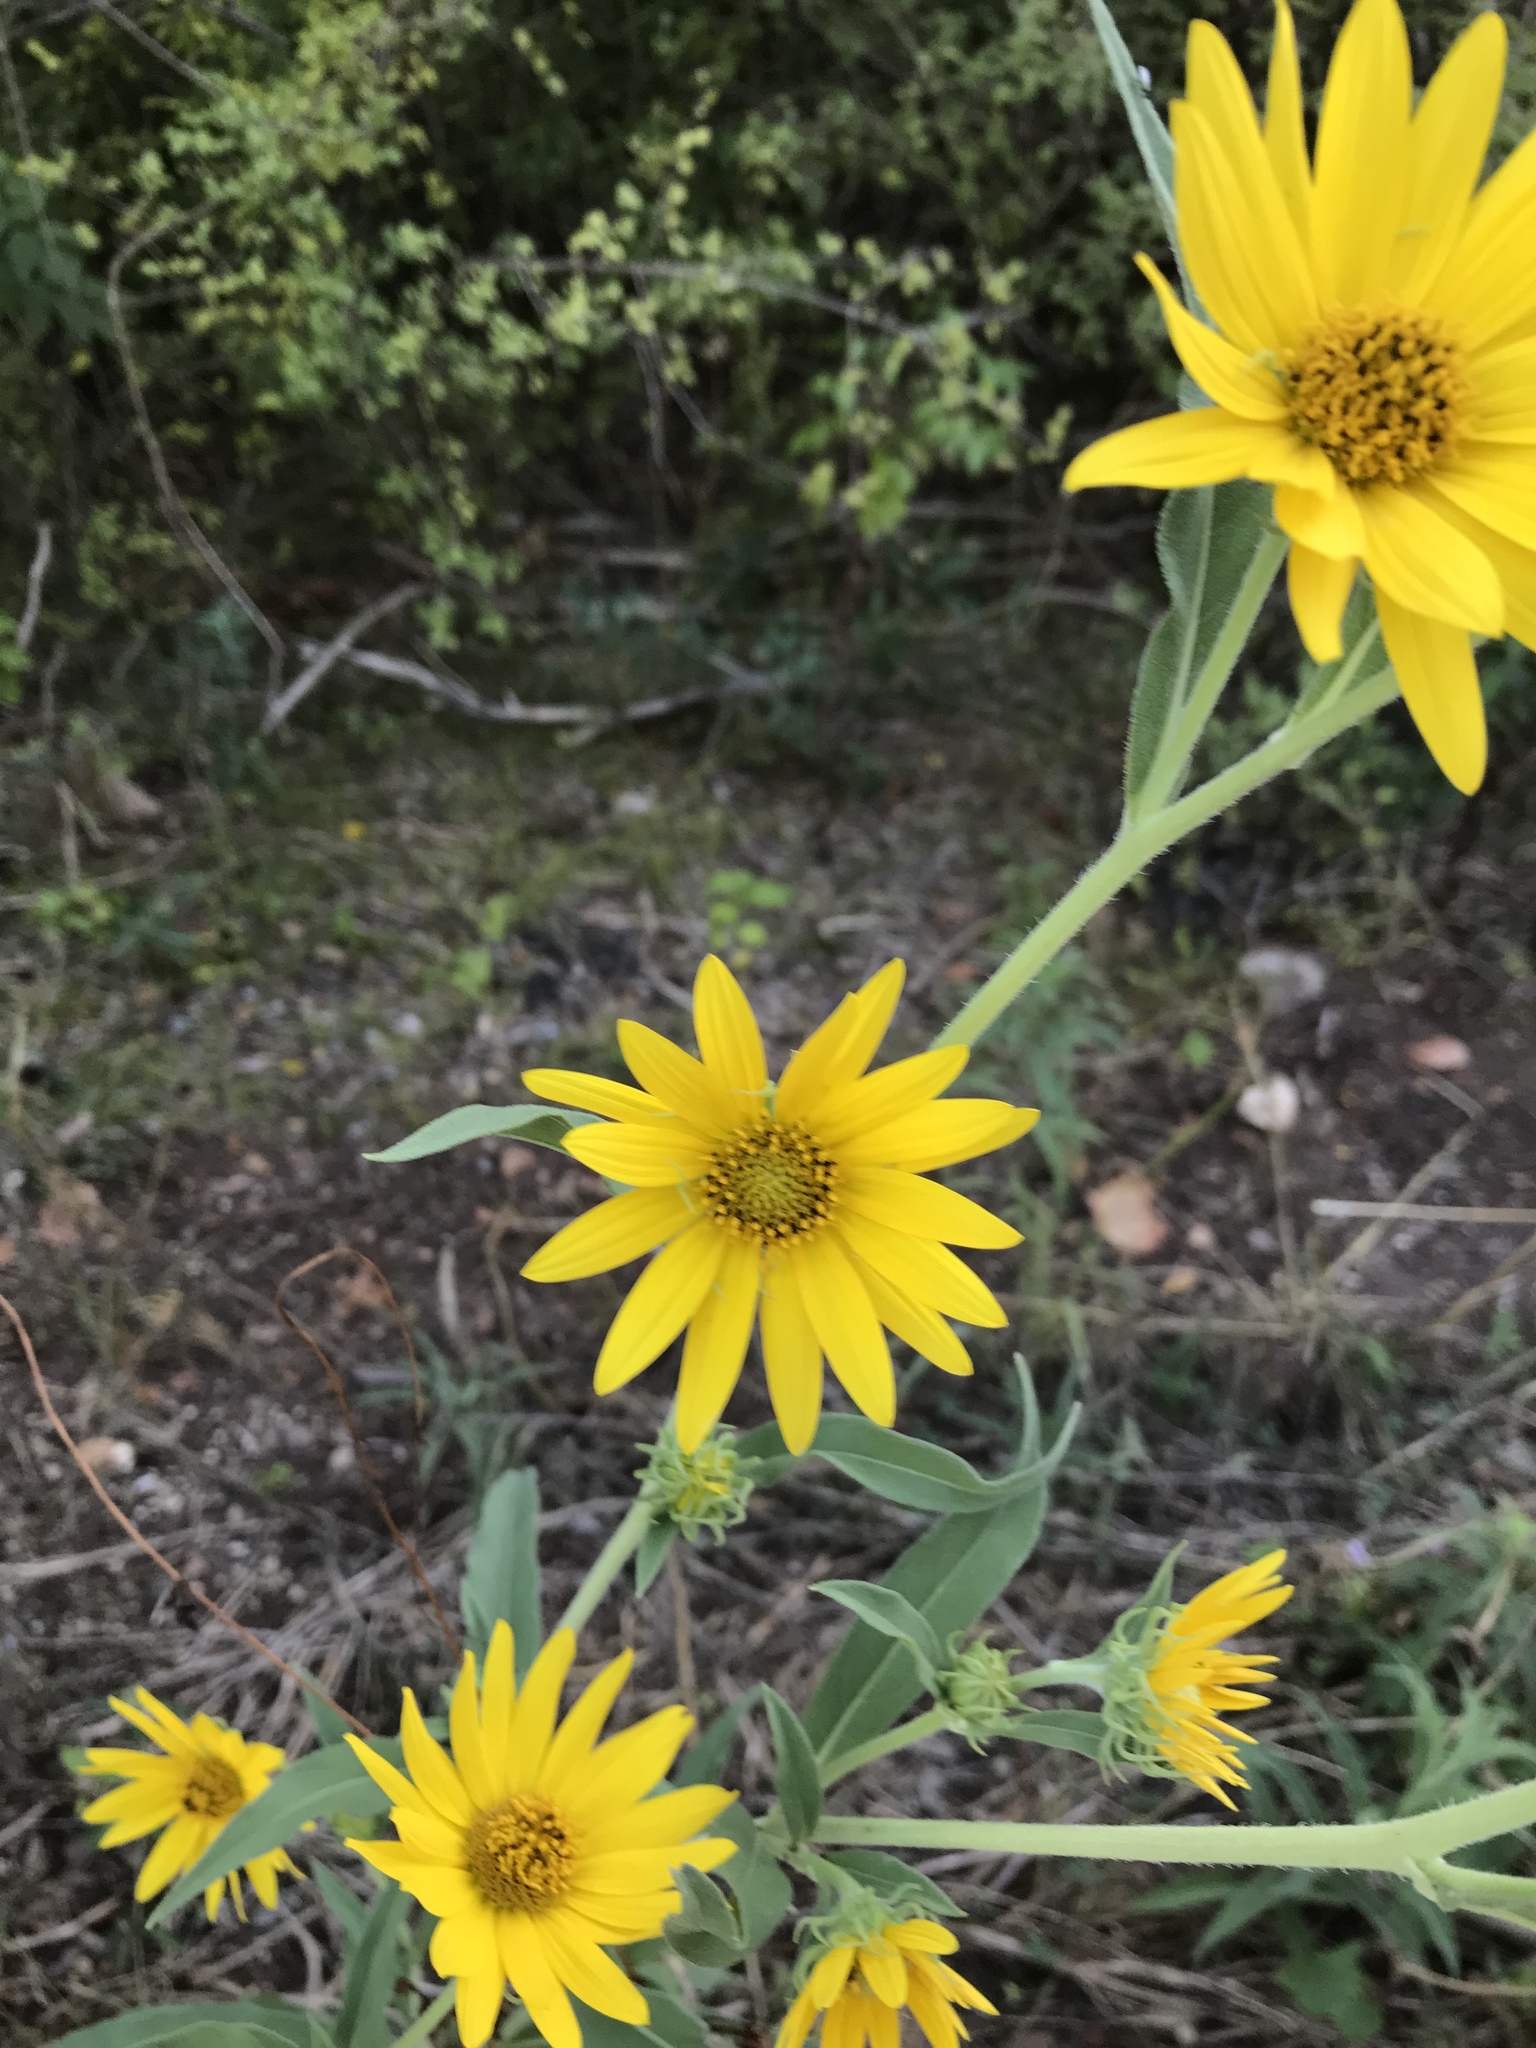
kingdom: Plantae
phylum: Tracheophyta
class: Magnoliopsida
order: Asterales
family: Asteraceae
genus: Helianthus
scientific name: Helianthus maximiliani
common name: Maximilian's sunflower
